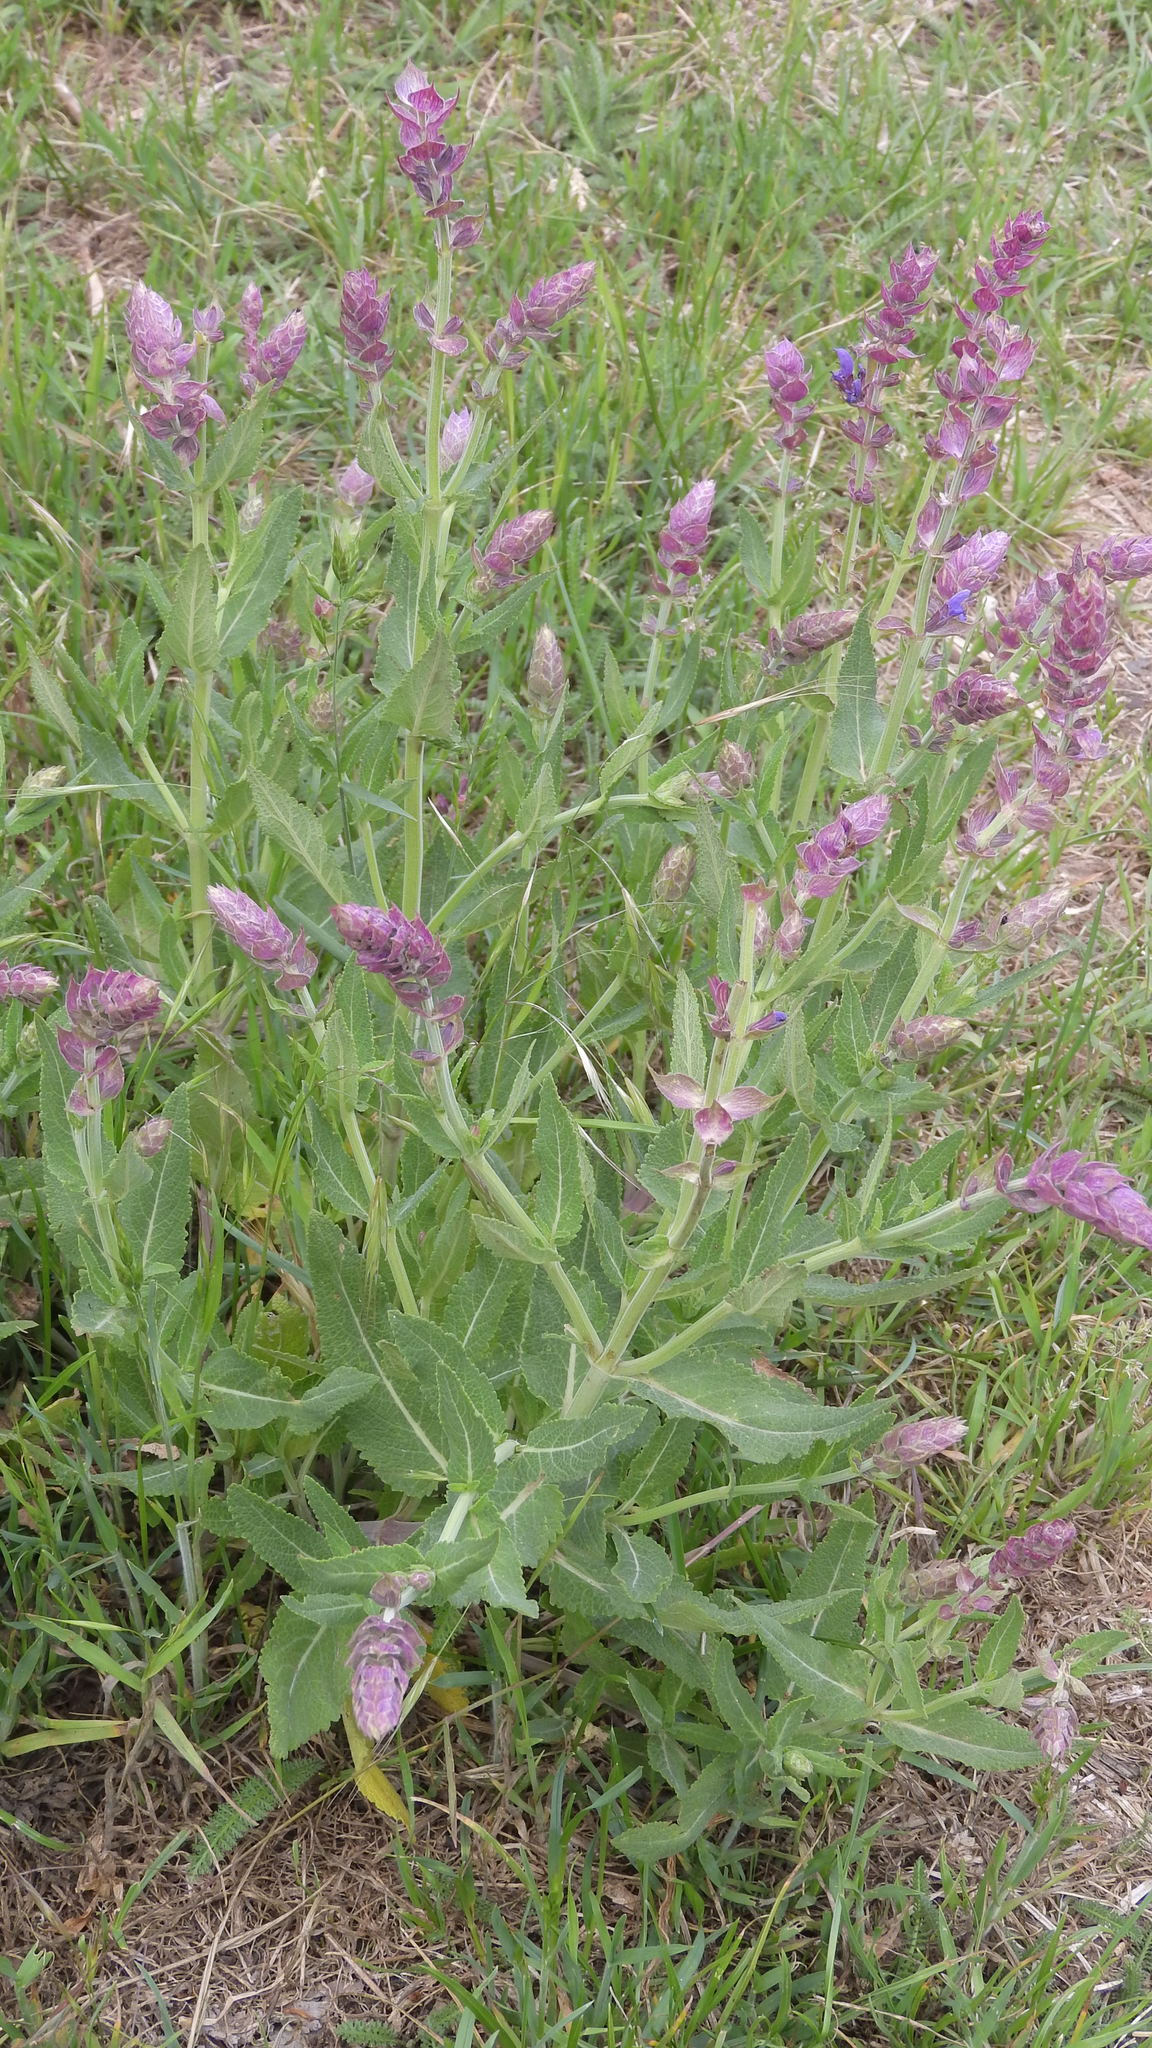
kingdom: Plantae
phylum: Tracheophyta
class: Magnoliopsida
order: Lamiales
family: Lamiaceae
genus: Salvia
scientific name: Salvia nemorosa
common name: Balkan clary
